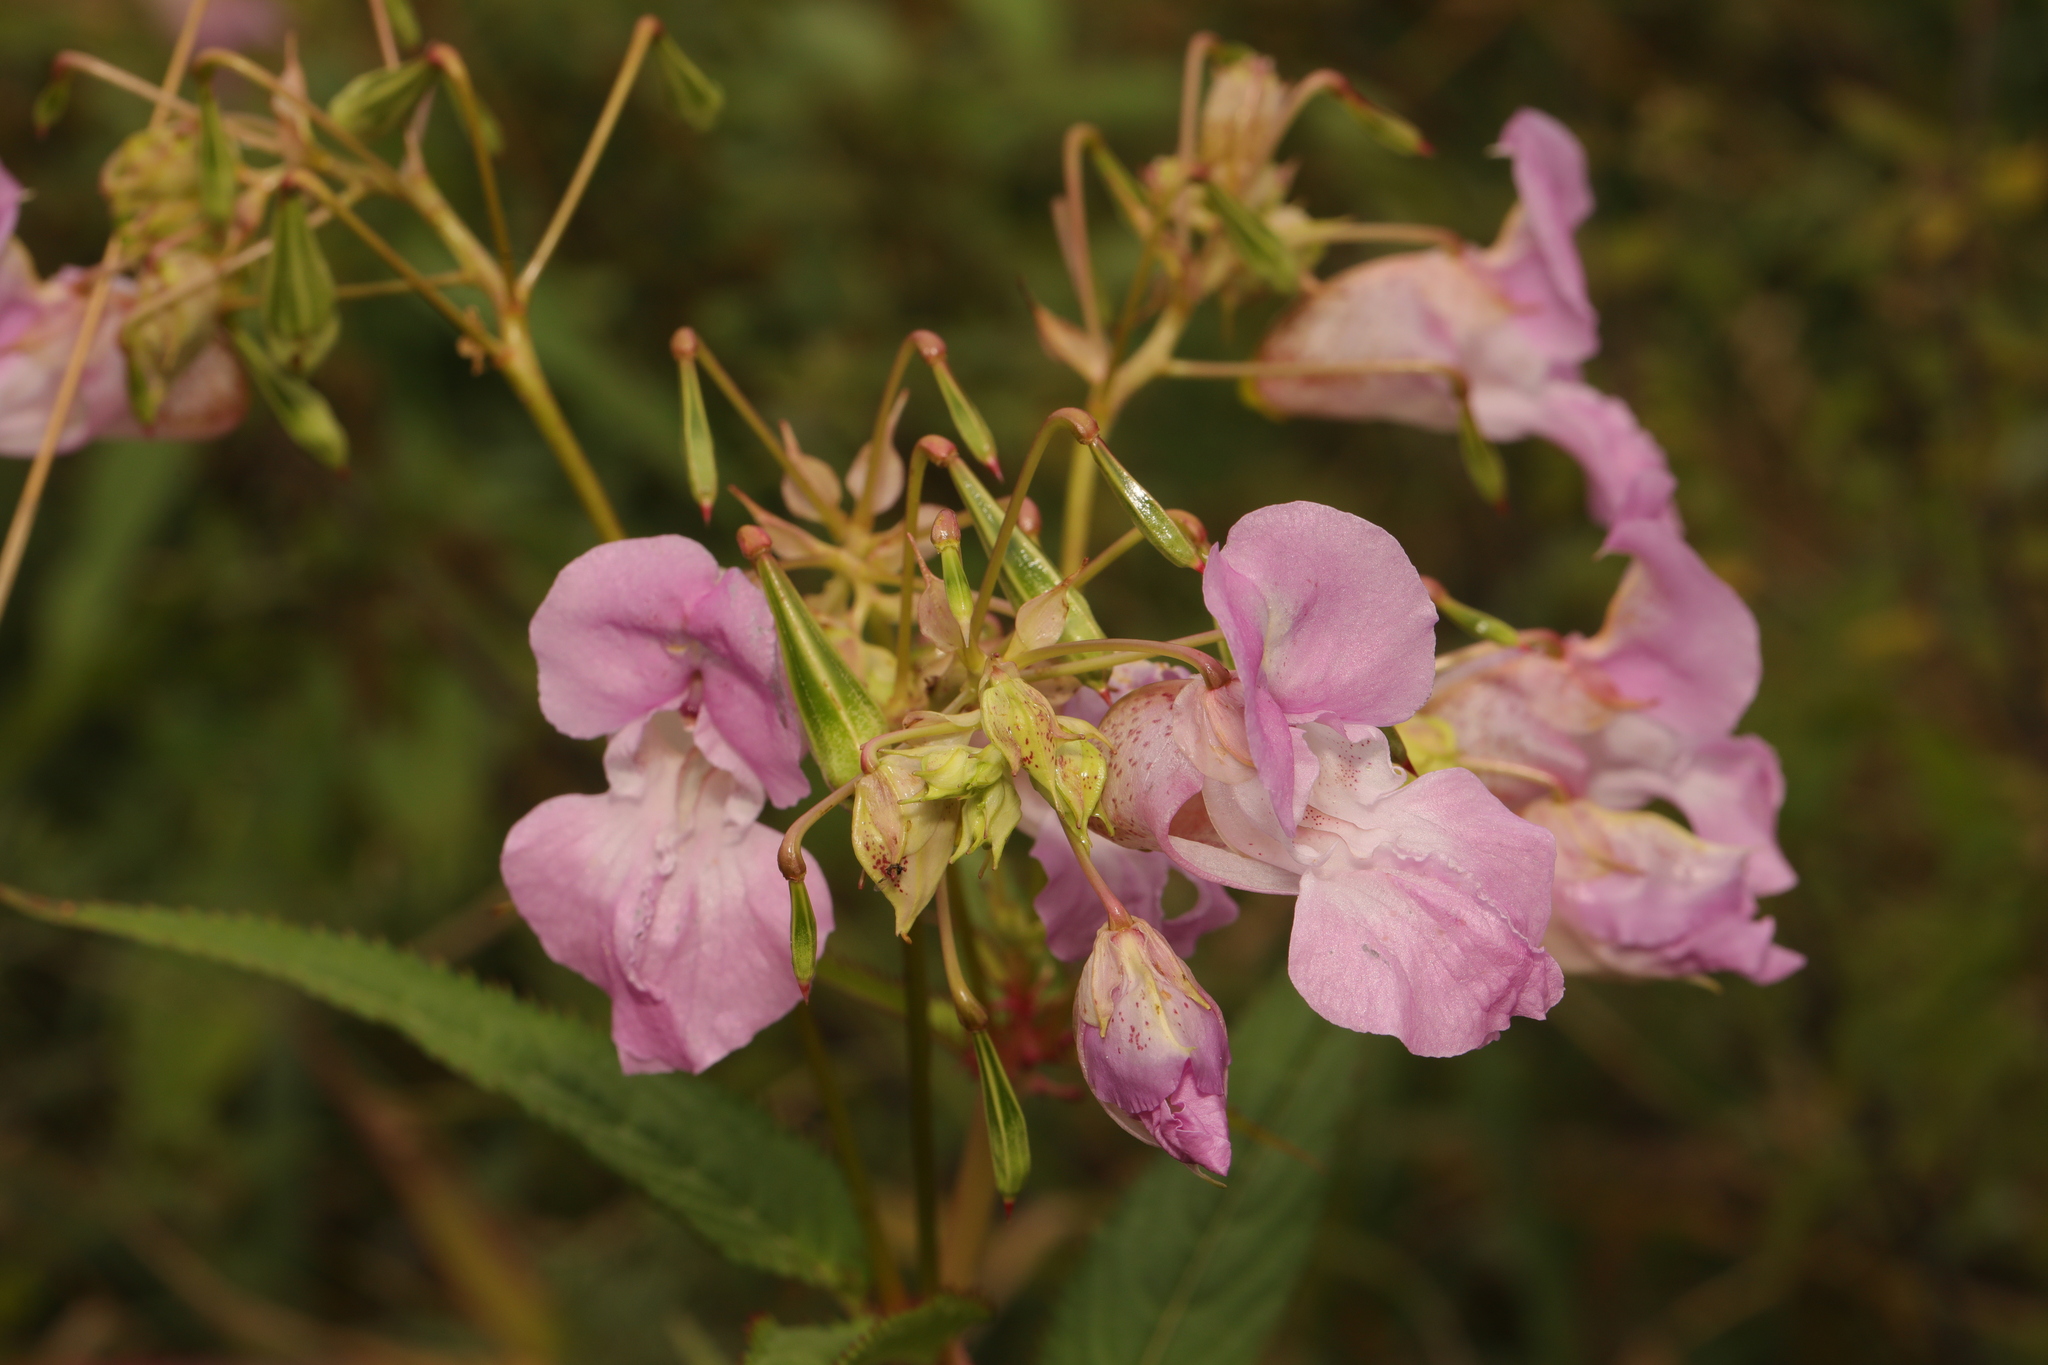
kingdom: Plantae
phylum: Tracheophyta
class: Magnoliopsida
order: Ericales
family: Balsaminaceae
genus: Impatiens
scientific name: Impatiens glandulifera
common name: Himalayan balsam
